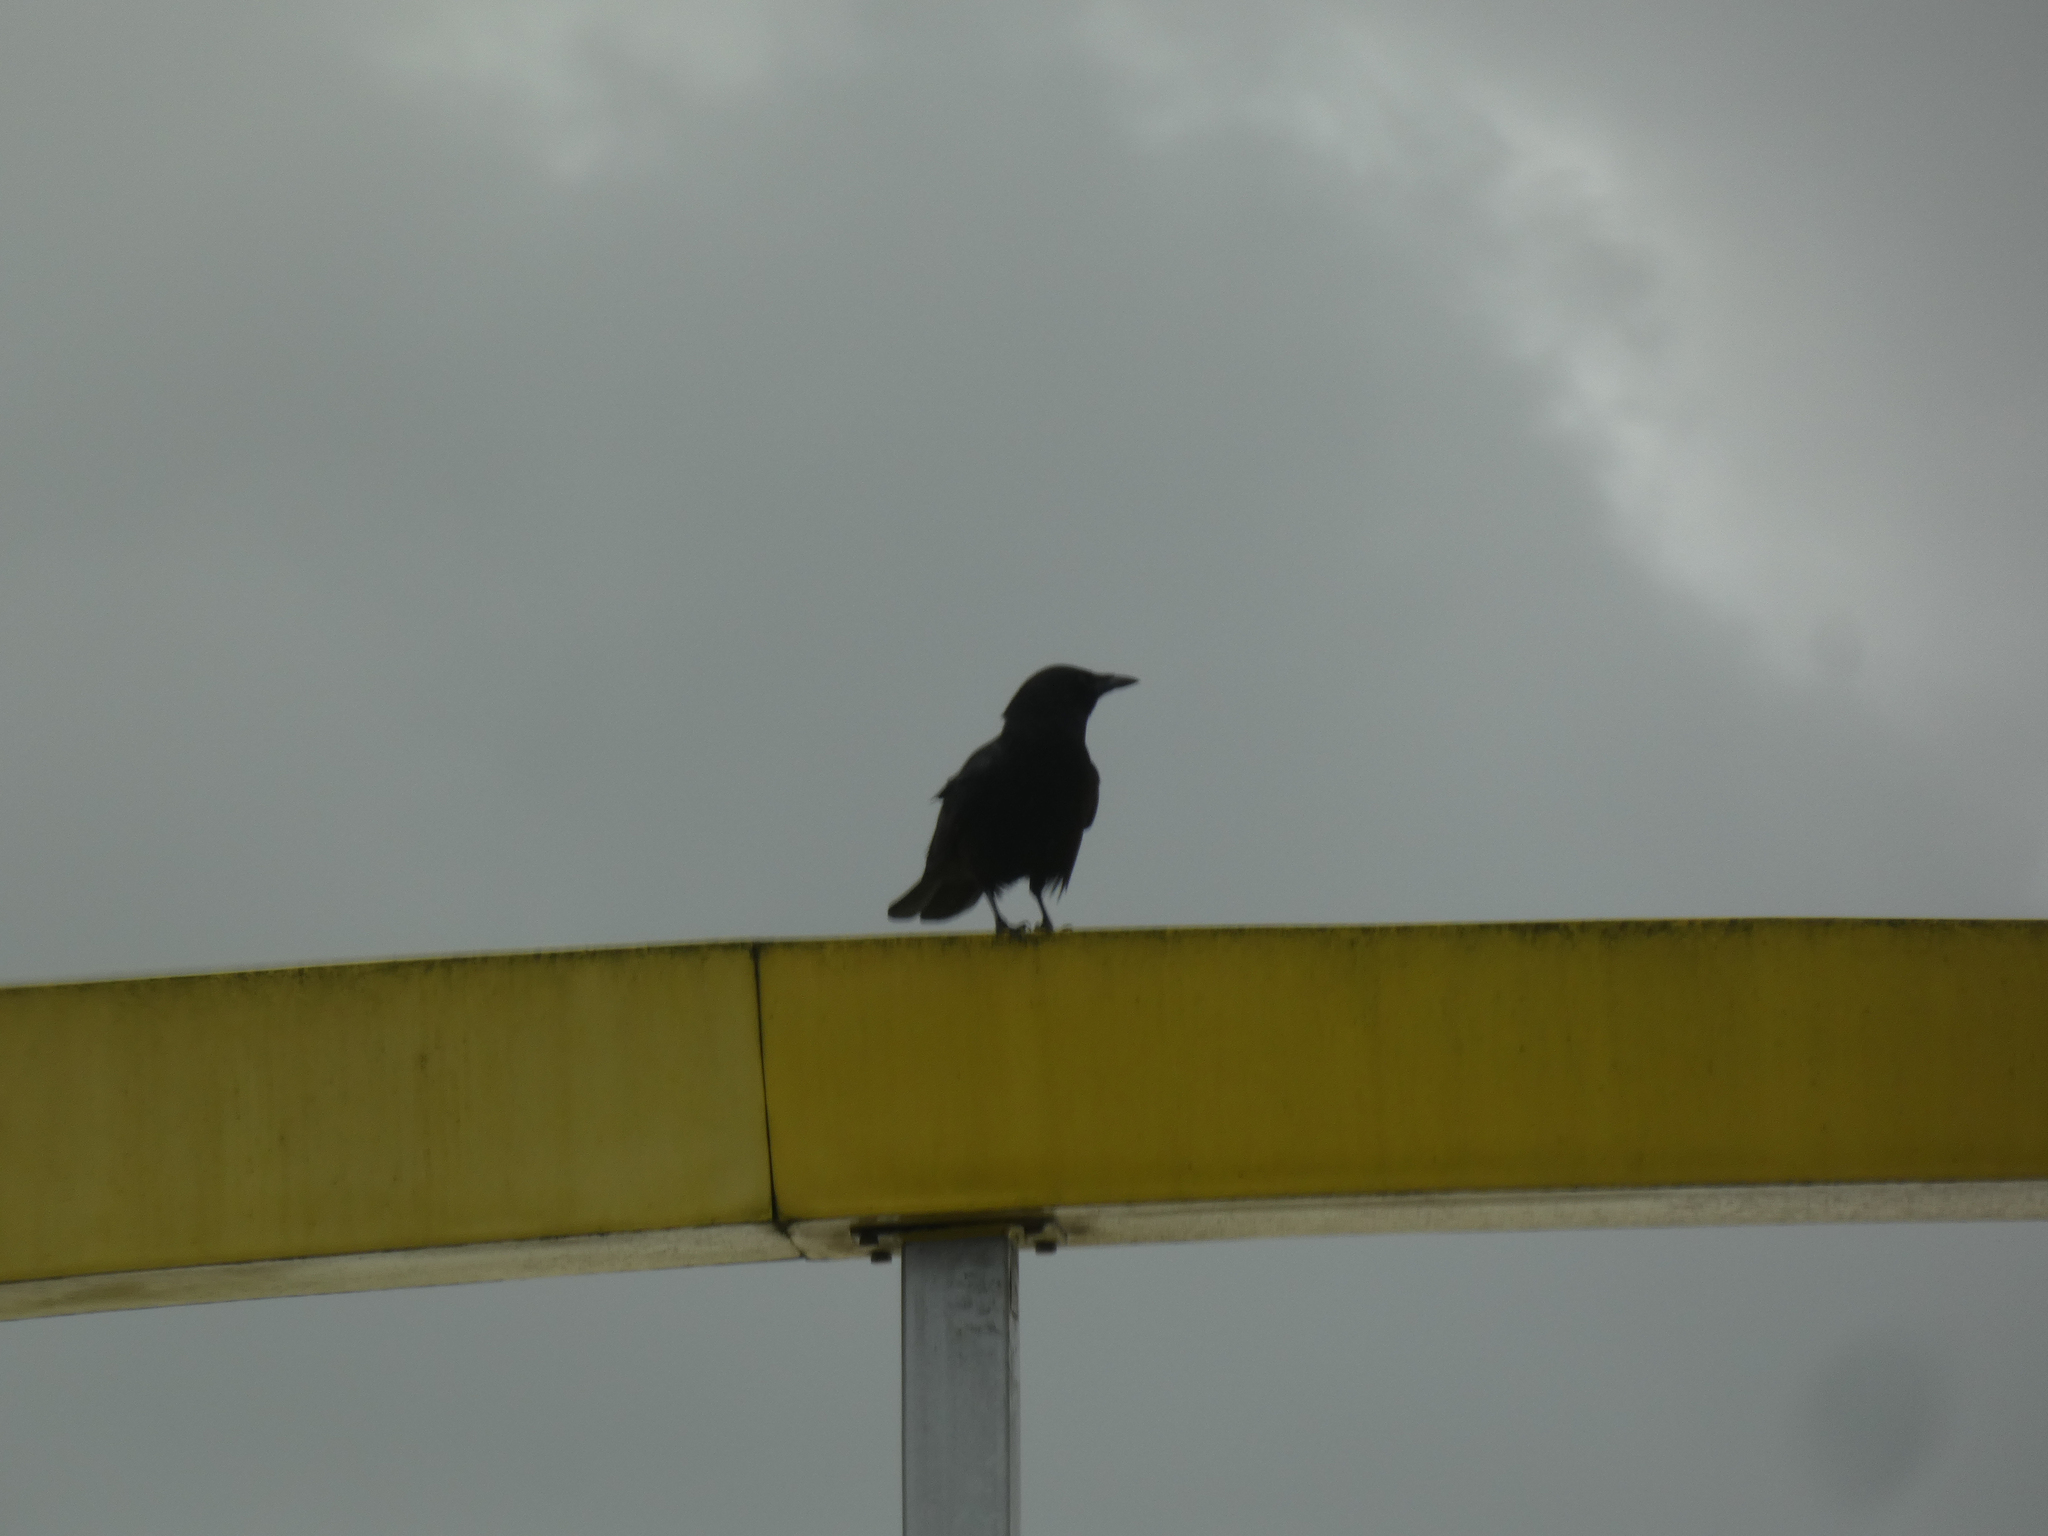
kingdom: Animalia
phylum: Chordata
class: Aves
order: Passeriformes
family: Corvidae
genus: Corvus
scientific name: Corvus brachyrhynchos
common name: American crow
